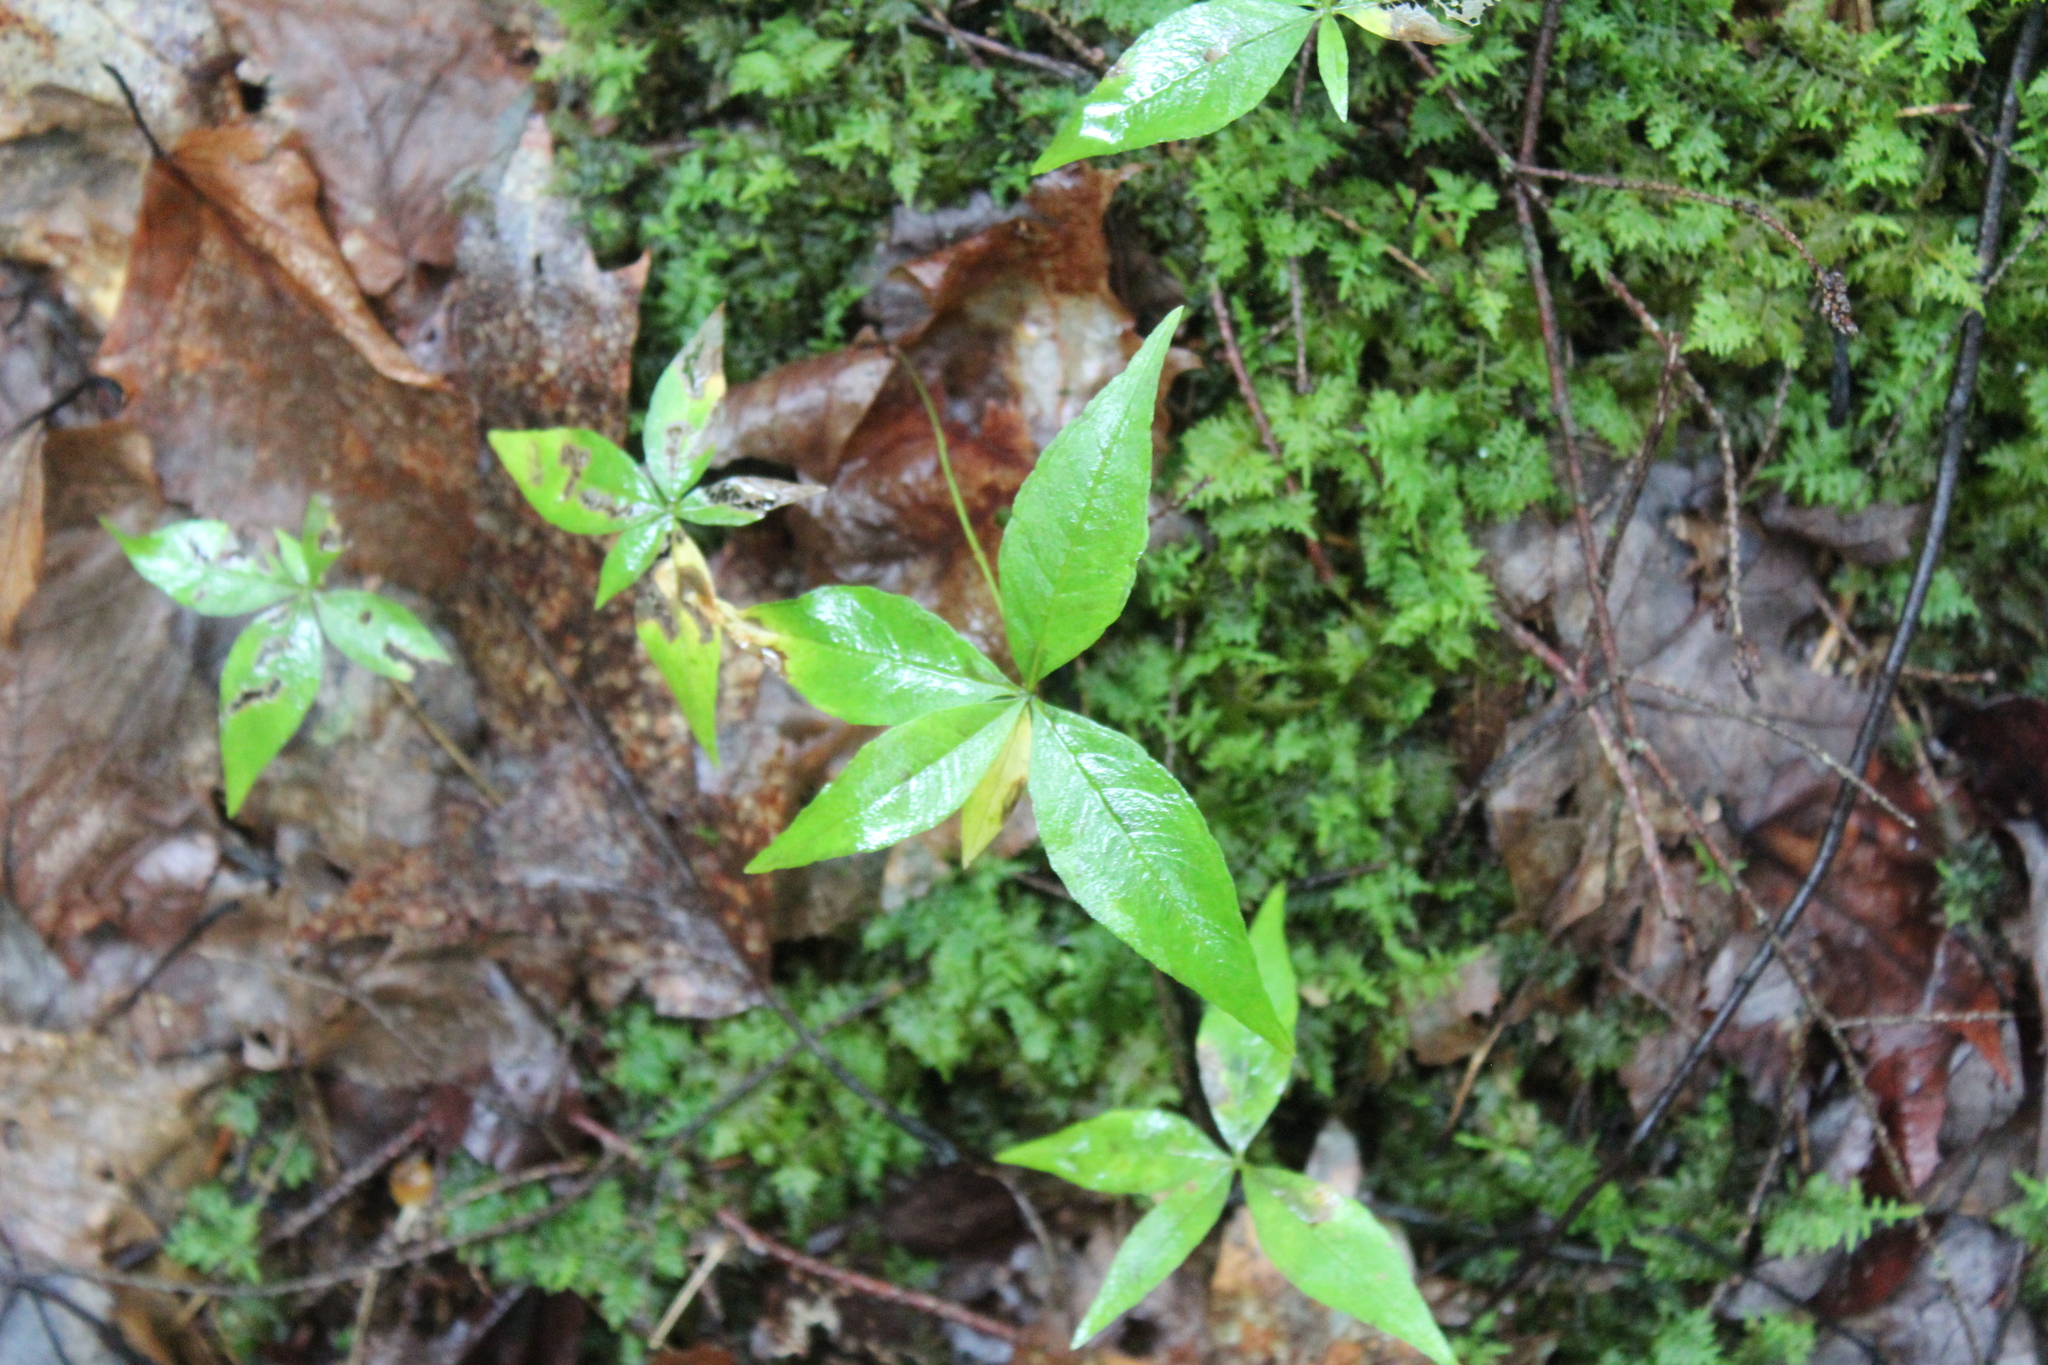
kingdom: Plantae
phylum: Tracheophyta
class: Magnoliopsida
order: Ericales
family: Primulaceae
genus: Lysimachia
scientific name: Lysimachia borealis
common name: American starflower
